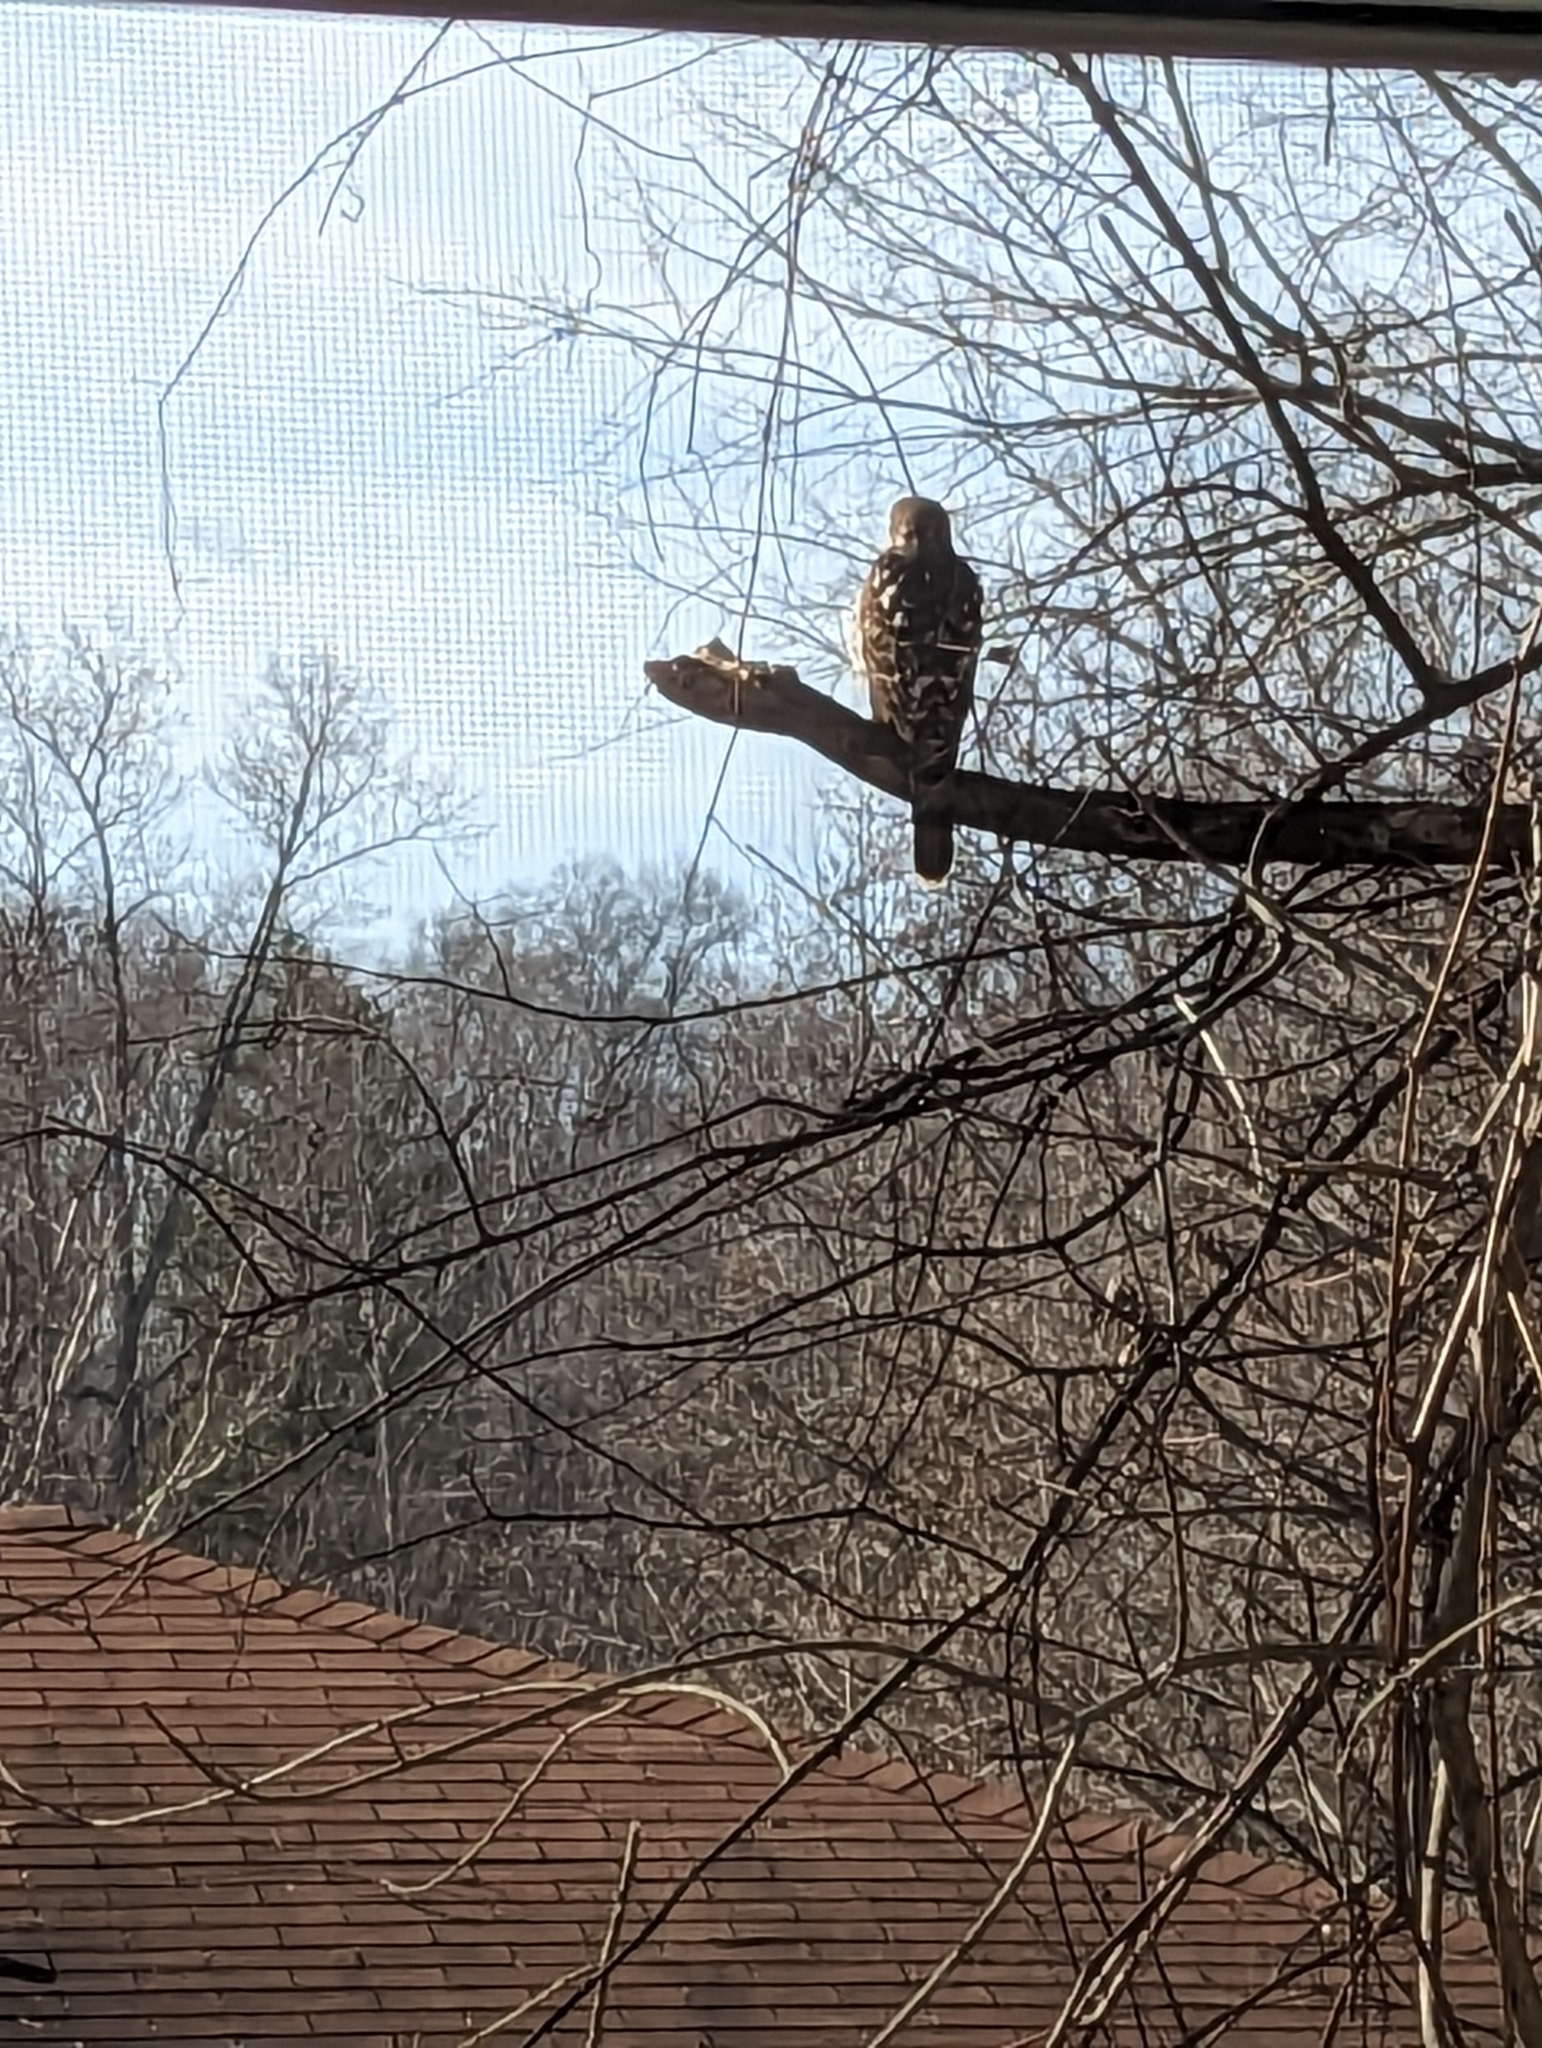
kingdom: Animalia
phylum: Chordata
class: Aves
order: Accipitriformes
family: Accipitridae
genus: Accipiter
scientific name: Accipiter cooperii
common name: Cooper's hawk
